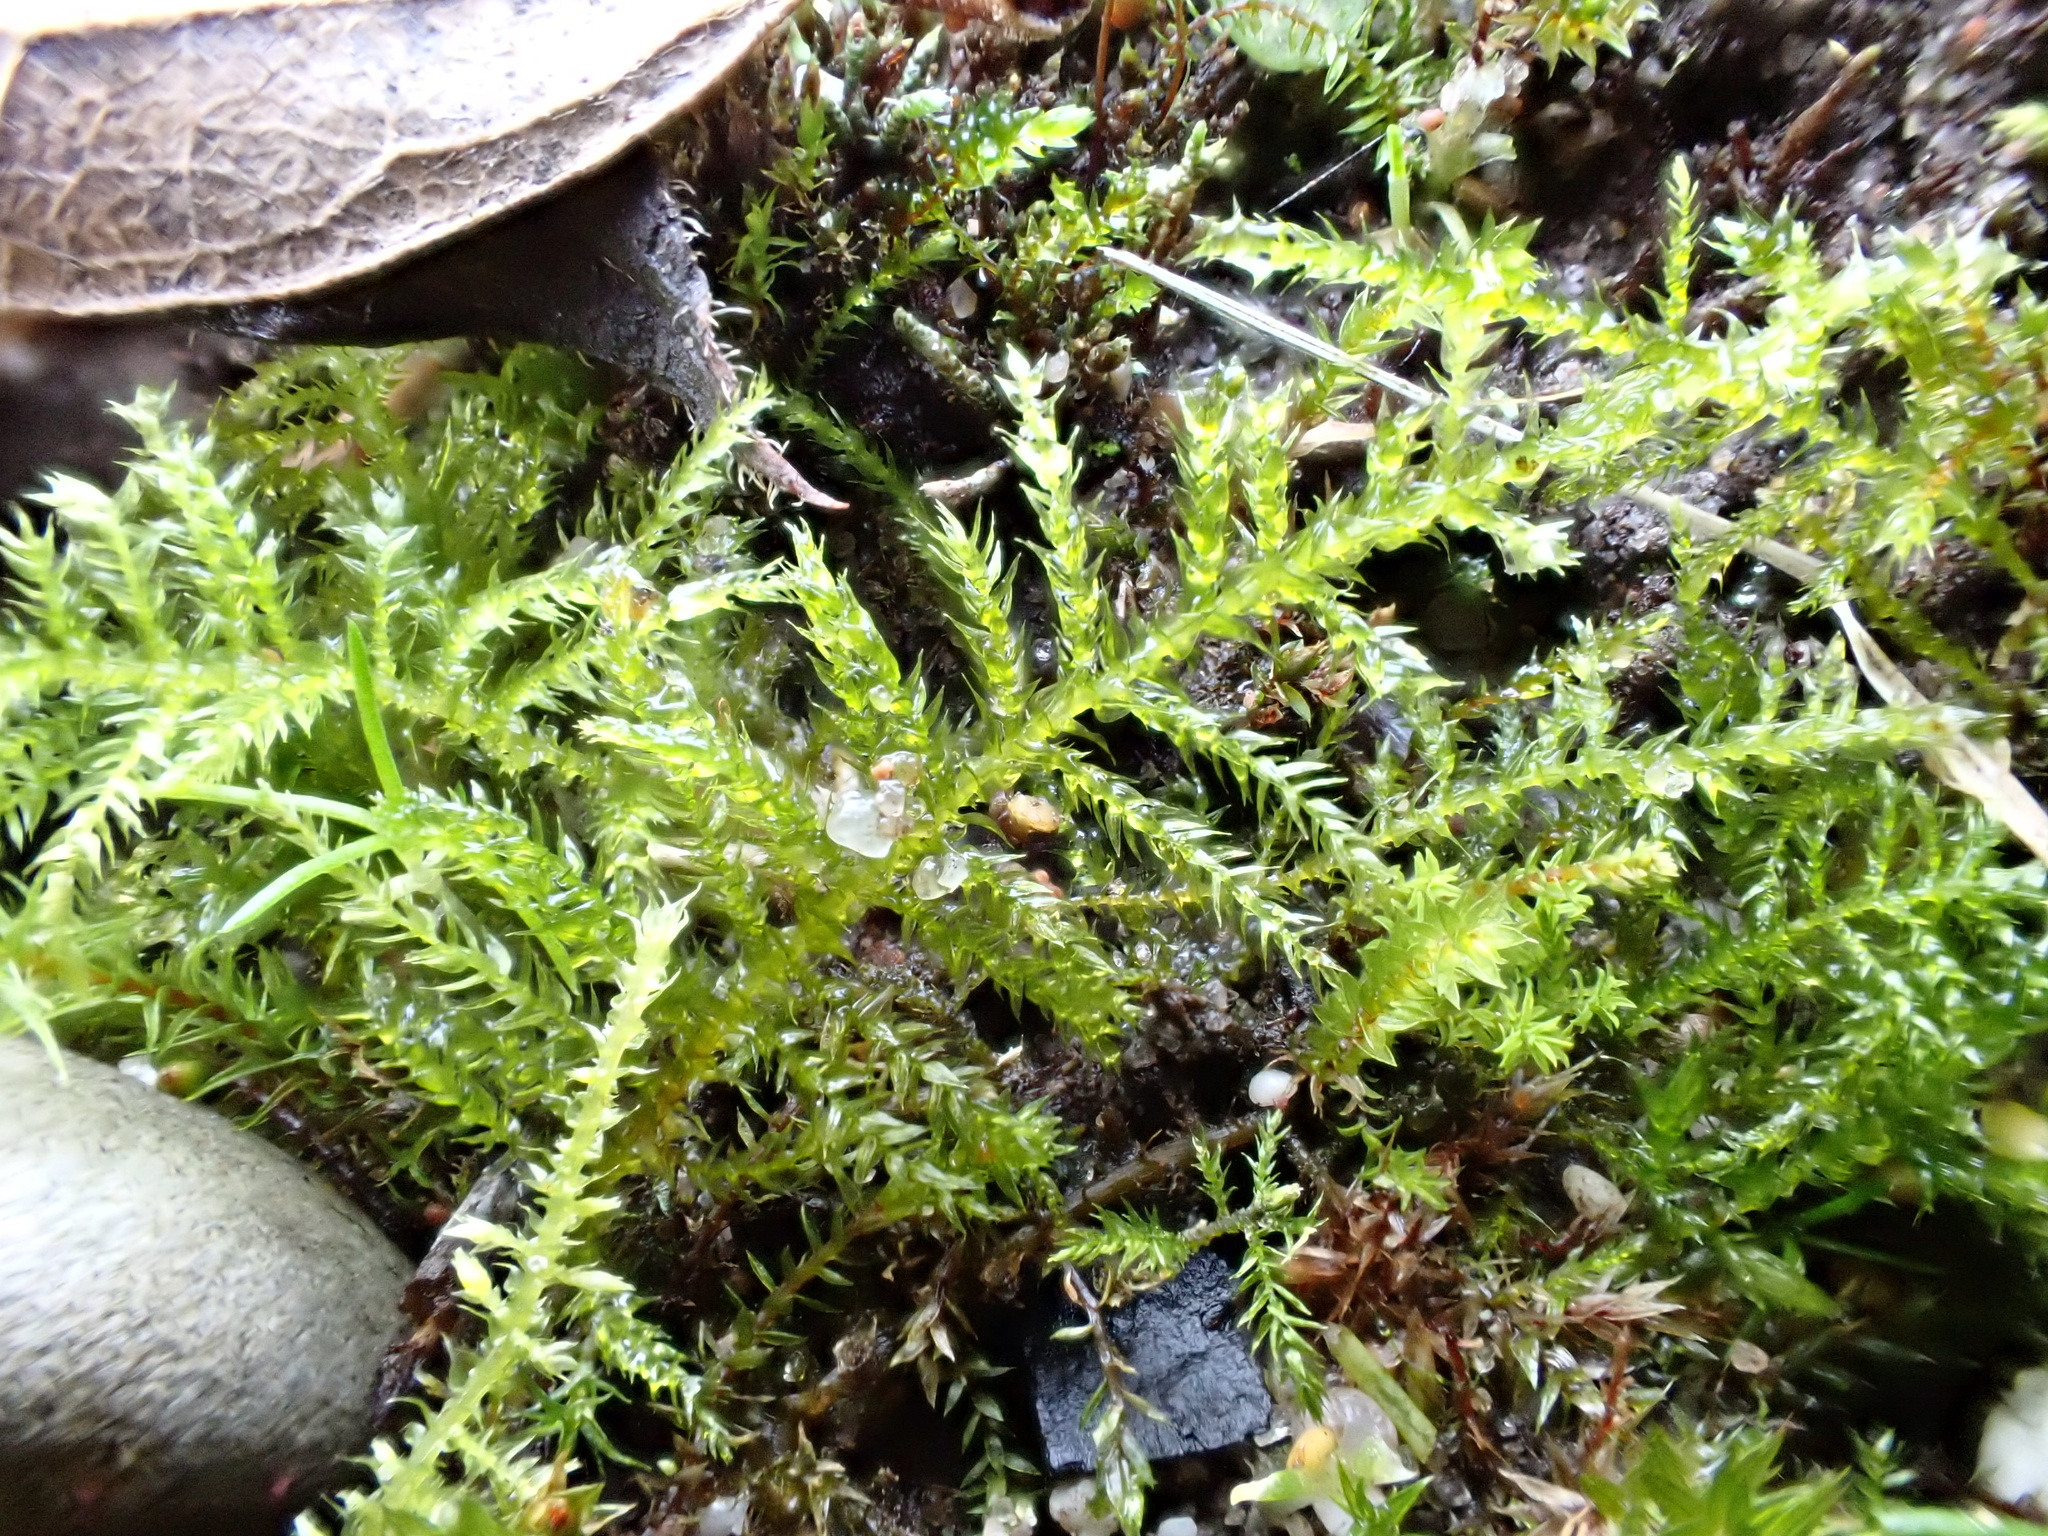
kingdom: Plantae
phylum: Bryophyta
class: Bryopsida
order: Hypnales
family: Brachytheciaceae
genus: Kindbergia
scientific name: Kindbergia praelonga
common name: Slender beaked moss
